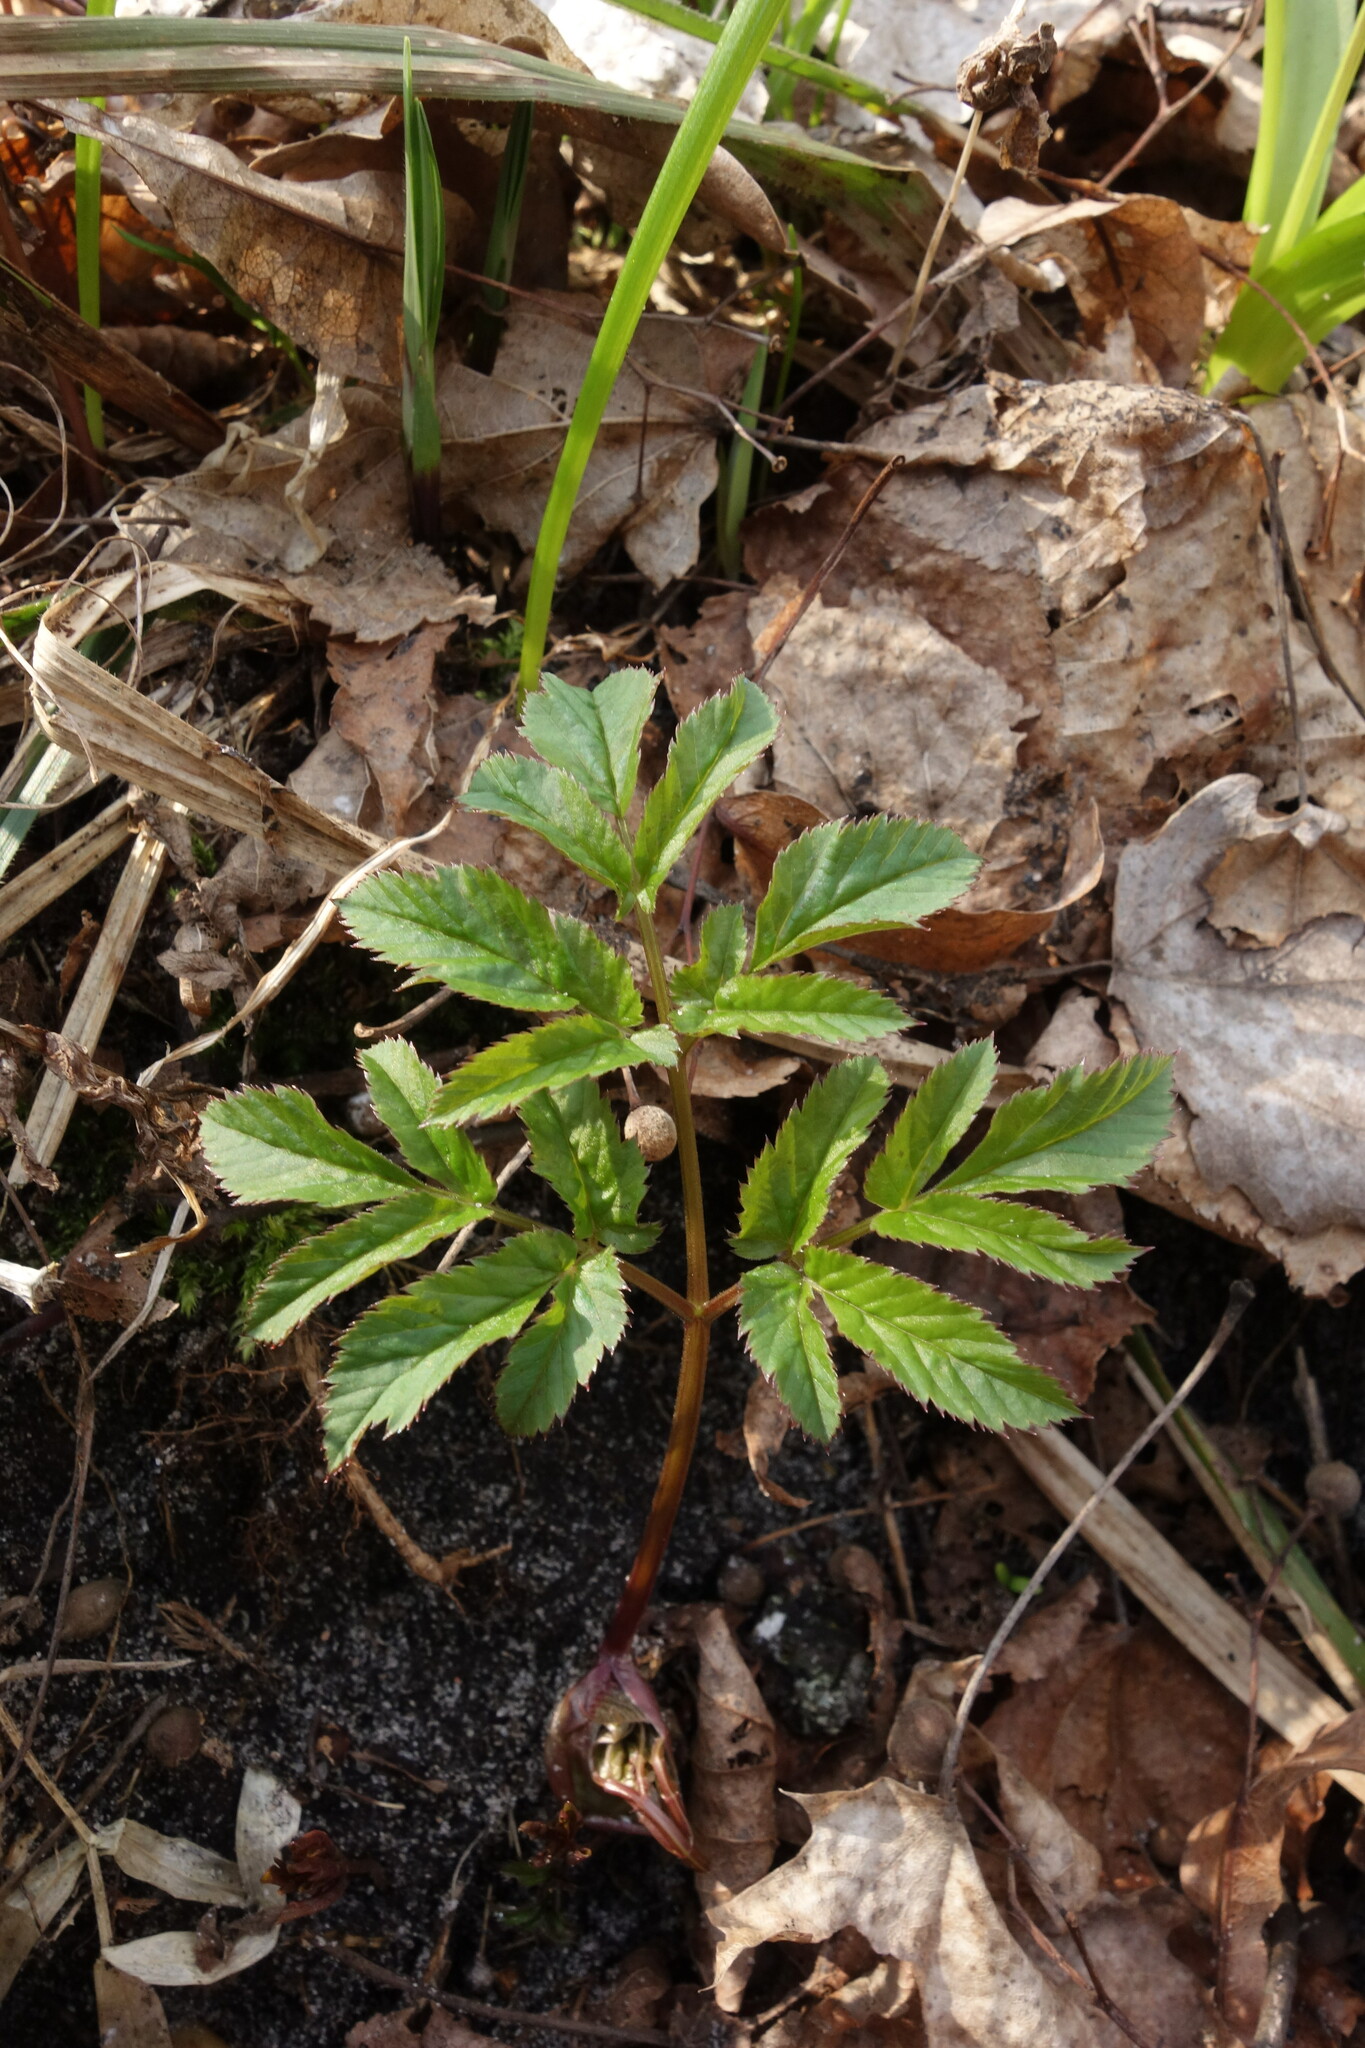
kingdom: Plantae
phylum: Tracheophyta
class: Magnoliopsida
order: Apiales
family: Apiaceae
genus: Aegopodium
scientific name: Aegopodium podagraria
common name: Ground-elder
